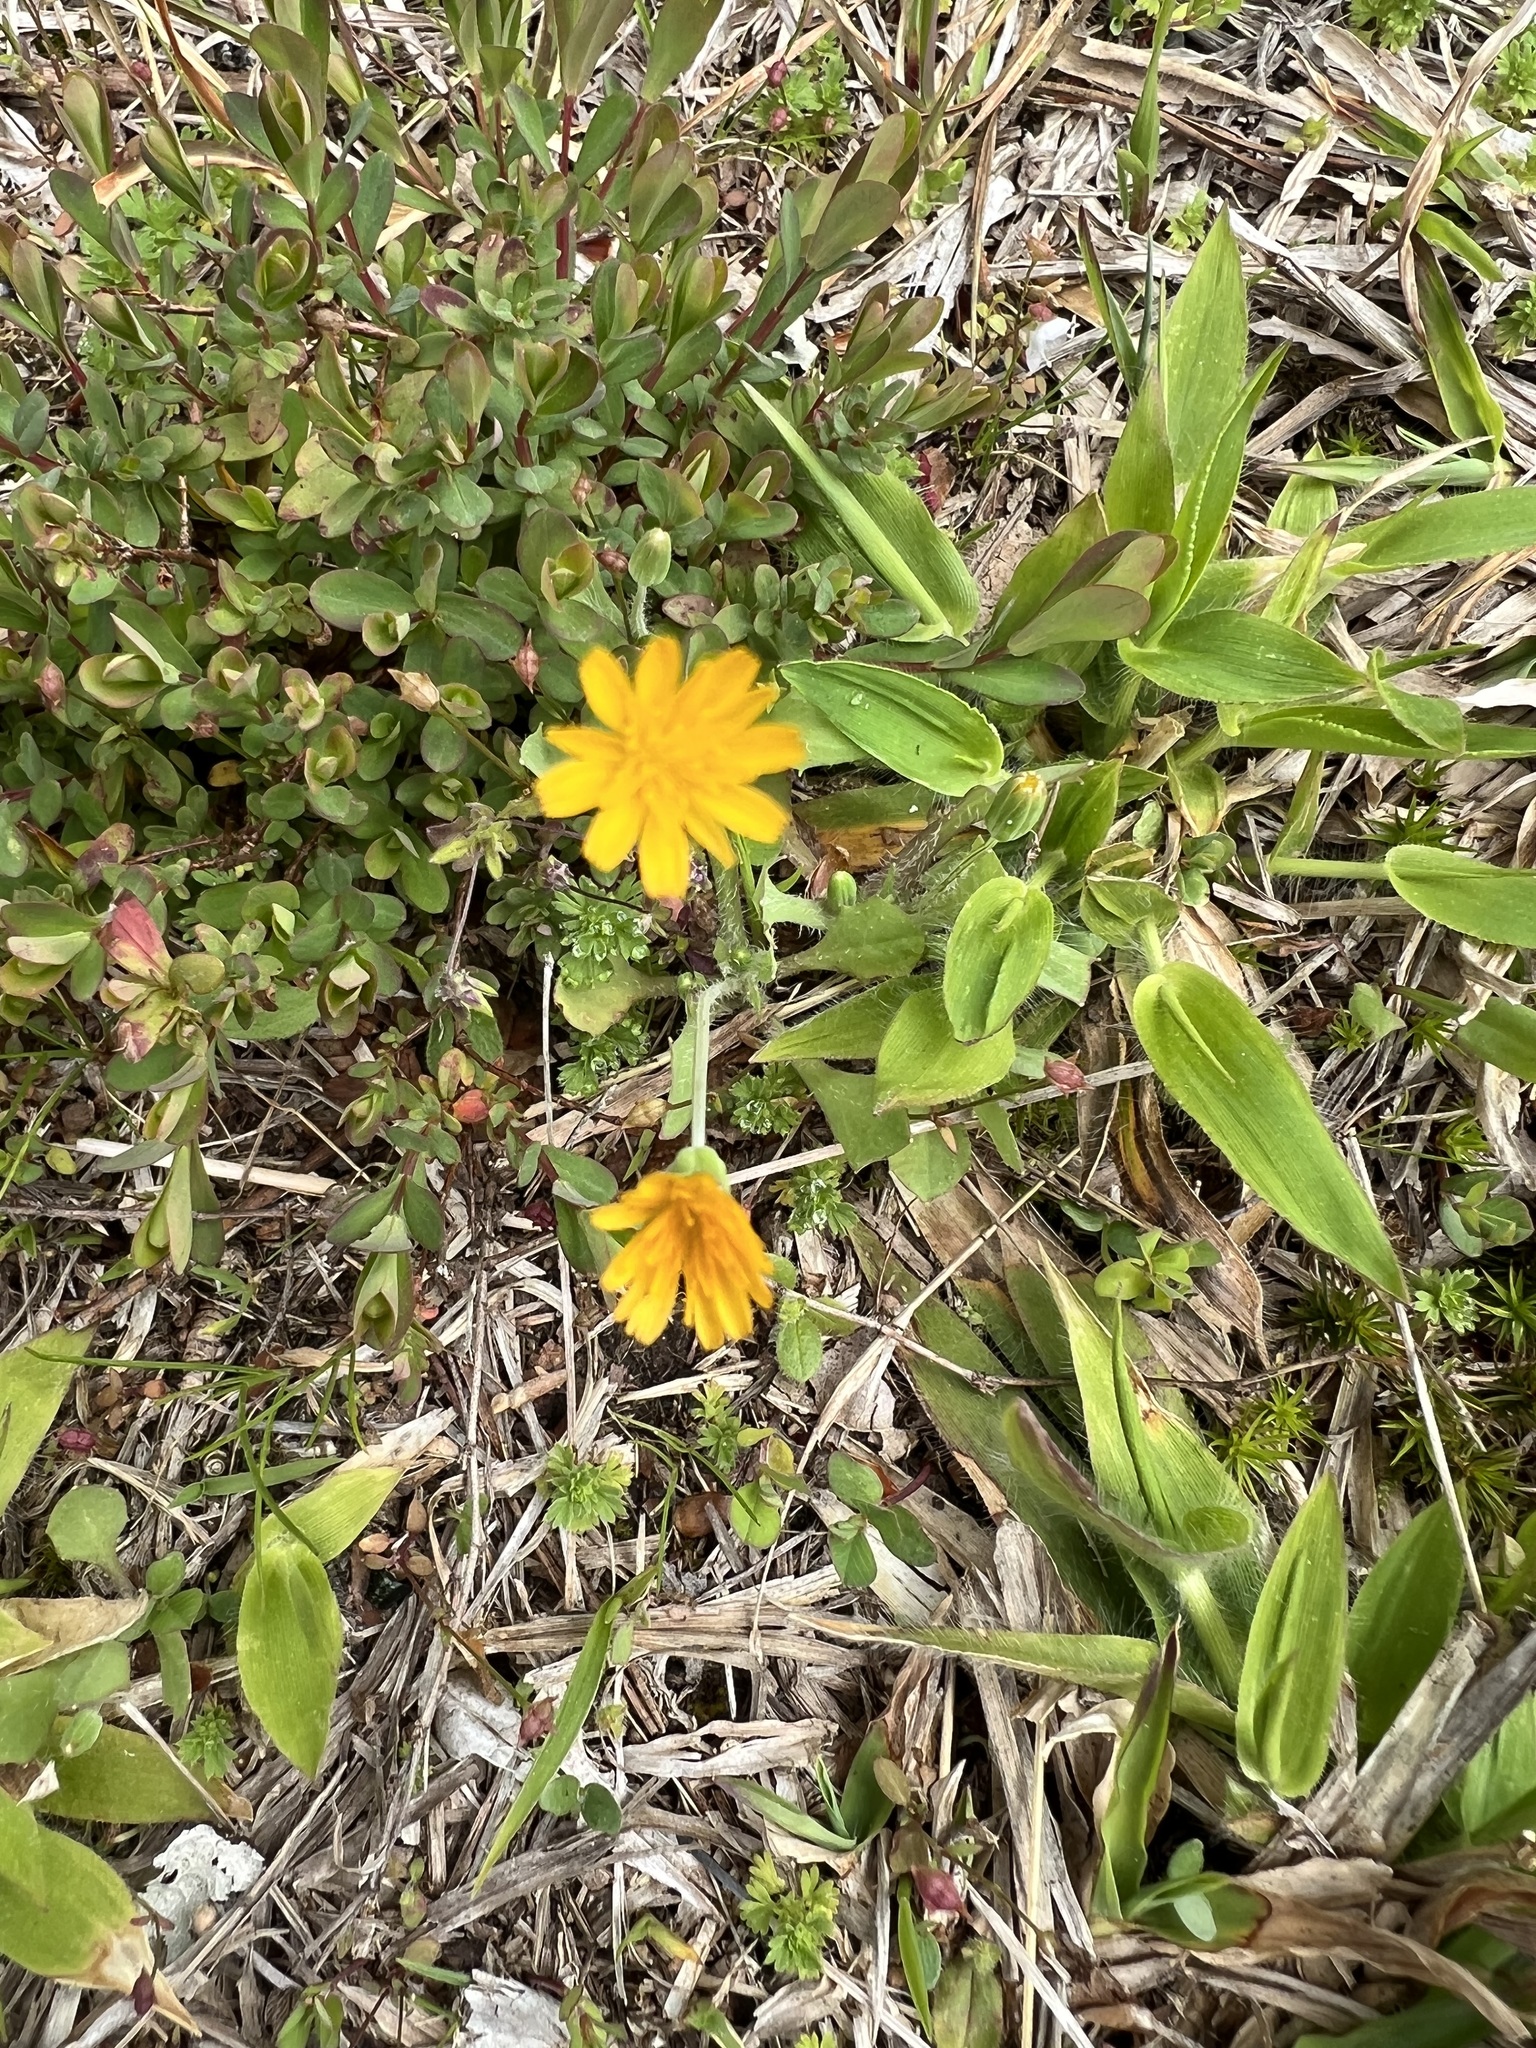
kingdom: Plantae
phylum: Tracheophyta
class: Magnoliopsida
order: Asterales
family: Asteraceae
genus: Krigia
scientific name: Krigia virginica
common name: Virginia dwarf-dandelion
